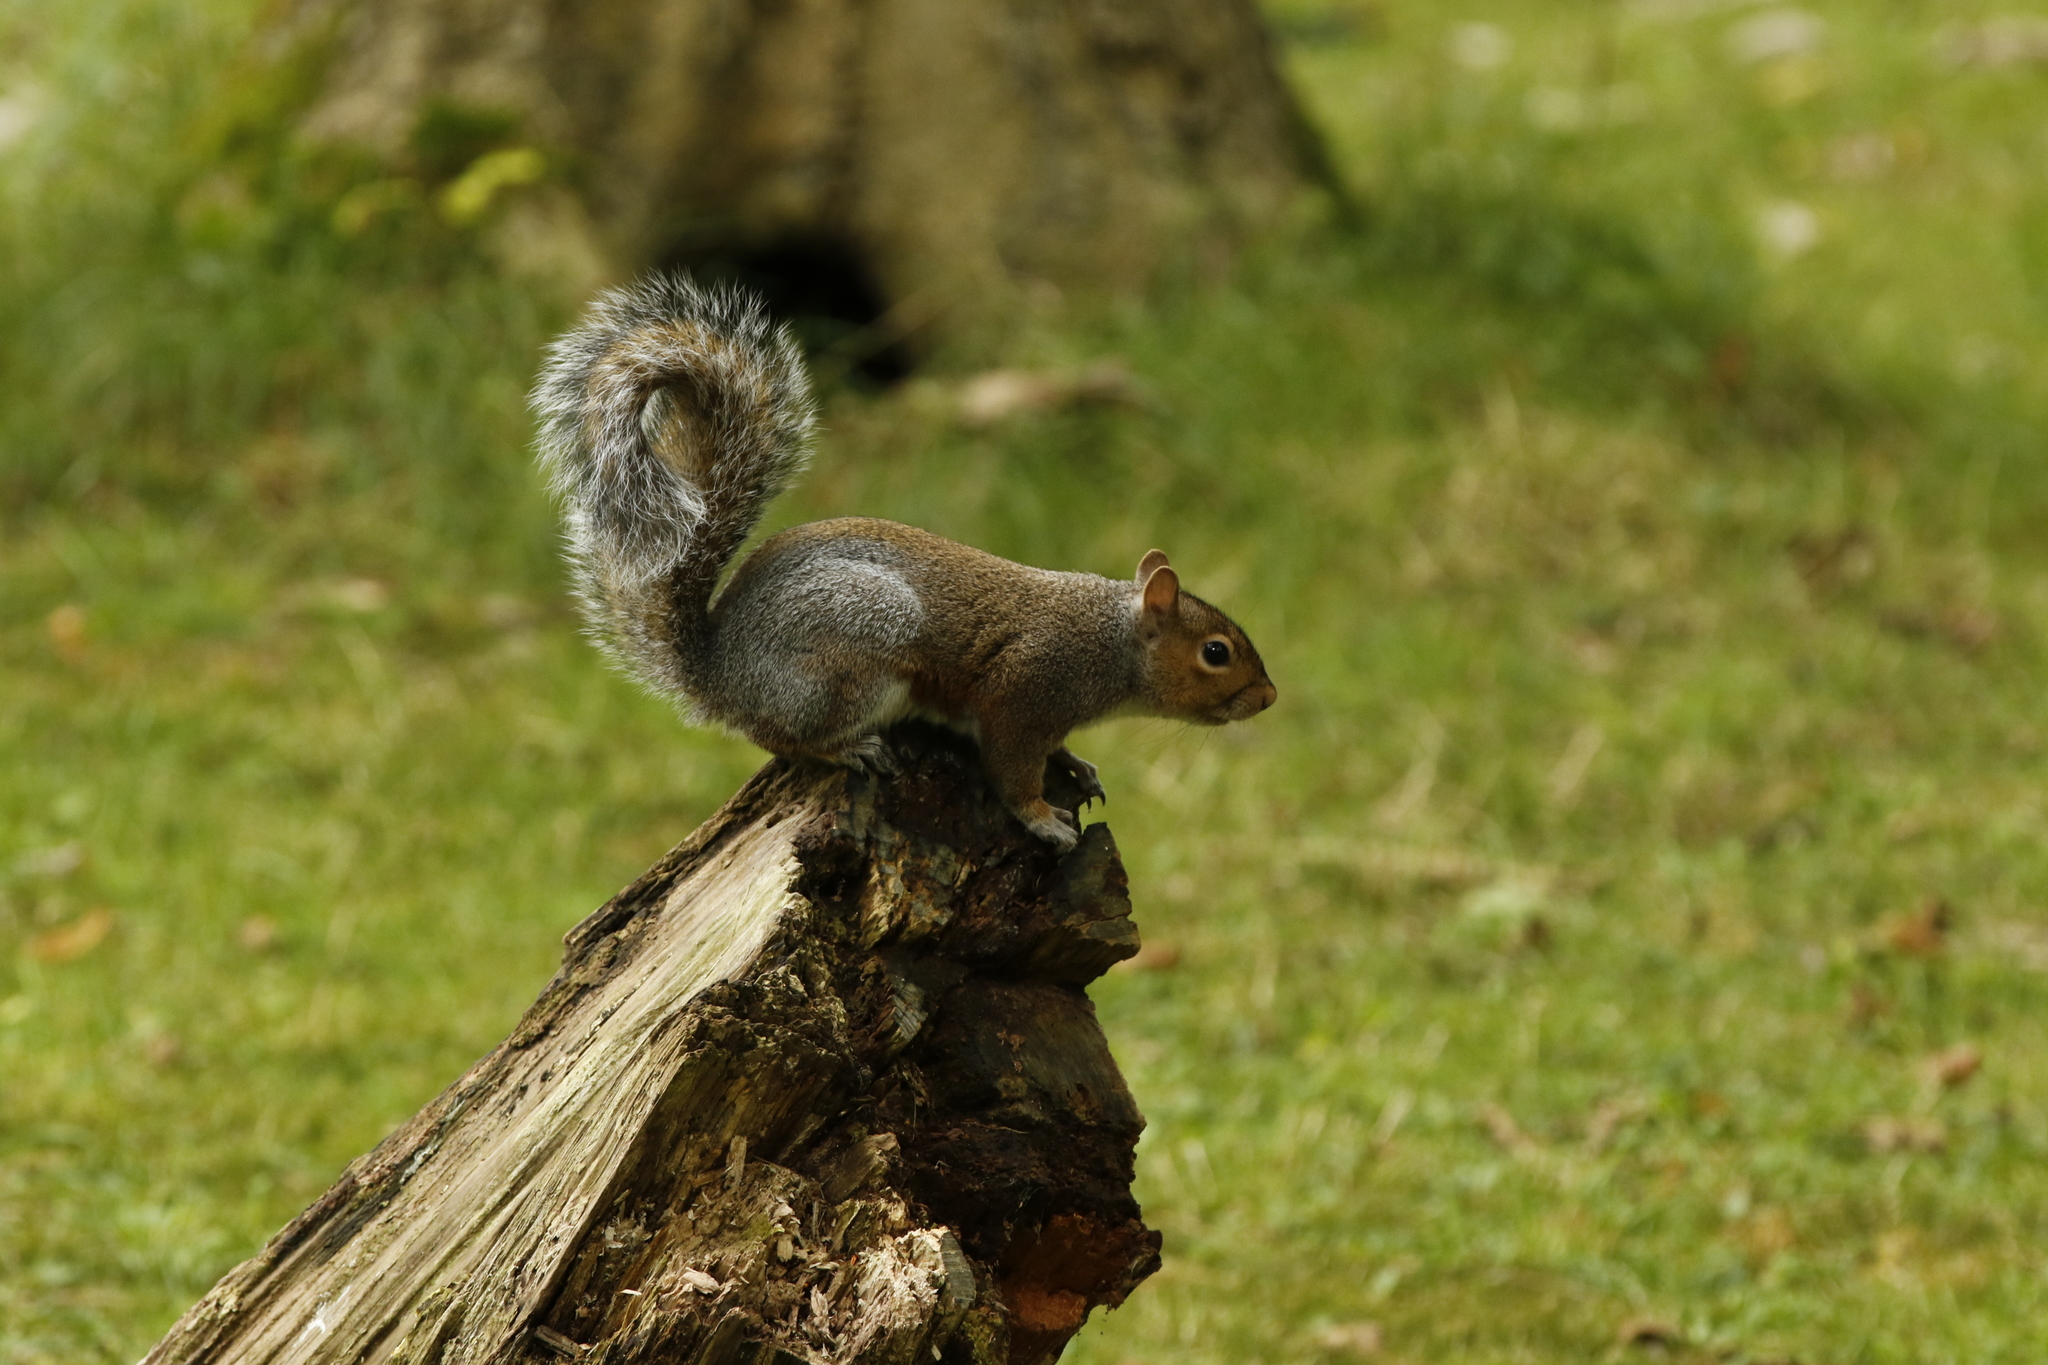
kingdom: Animalia
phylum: Chordata
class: Mammalia
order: Rodentia
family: Sciuridae
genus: Sciurus
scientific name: Sciurus carolinensis
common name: Eastern gray squirrel
